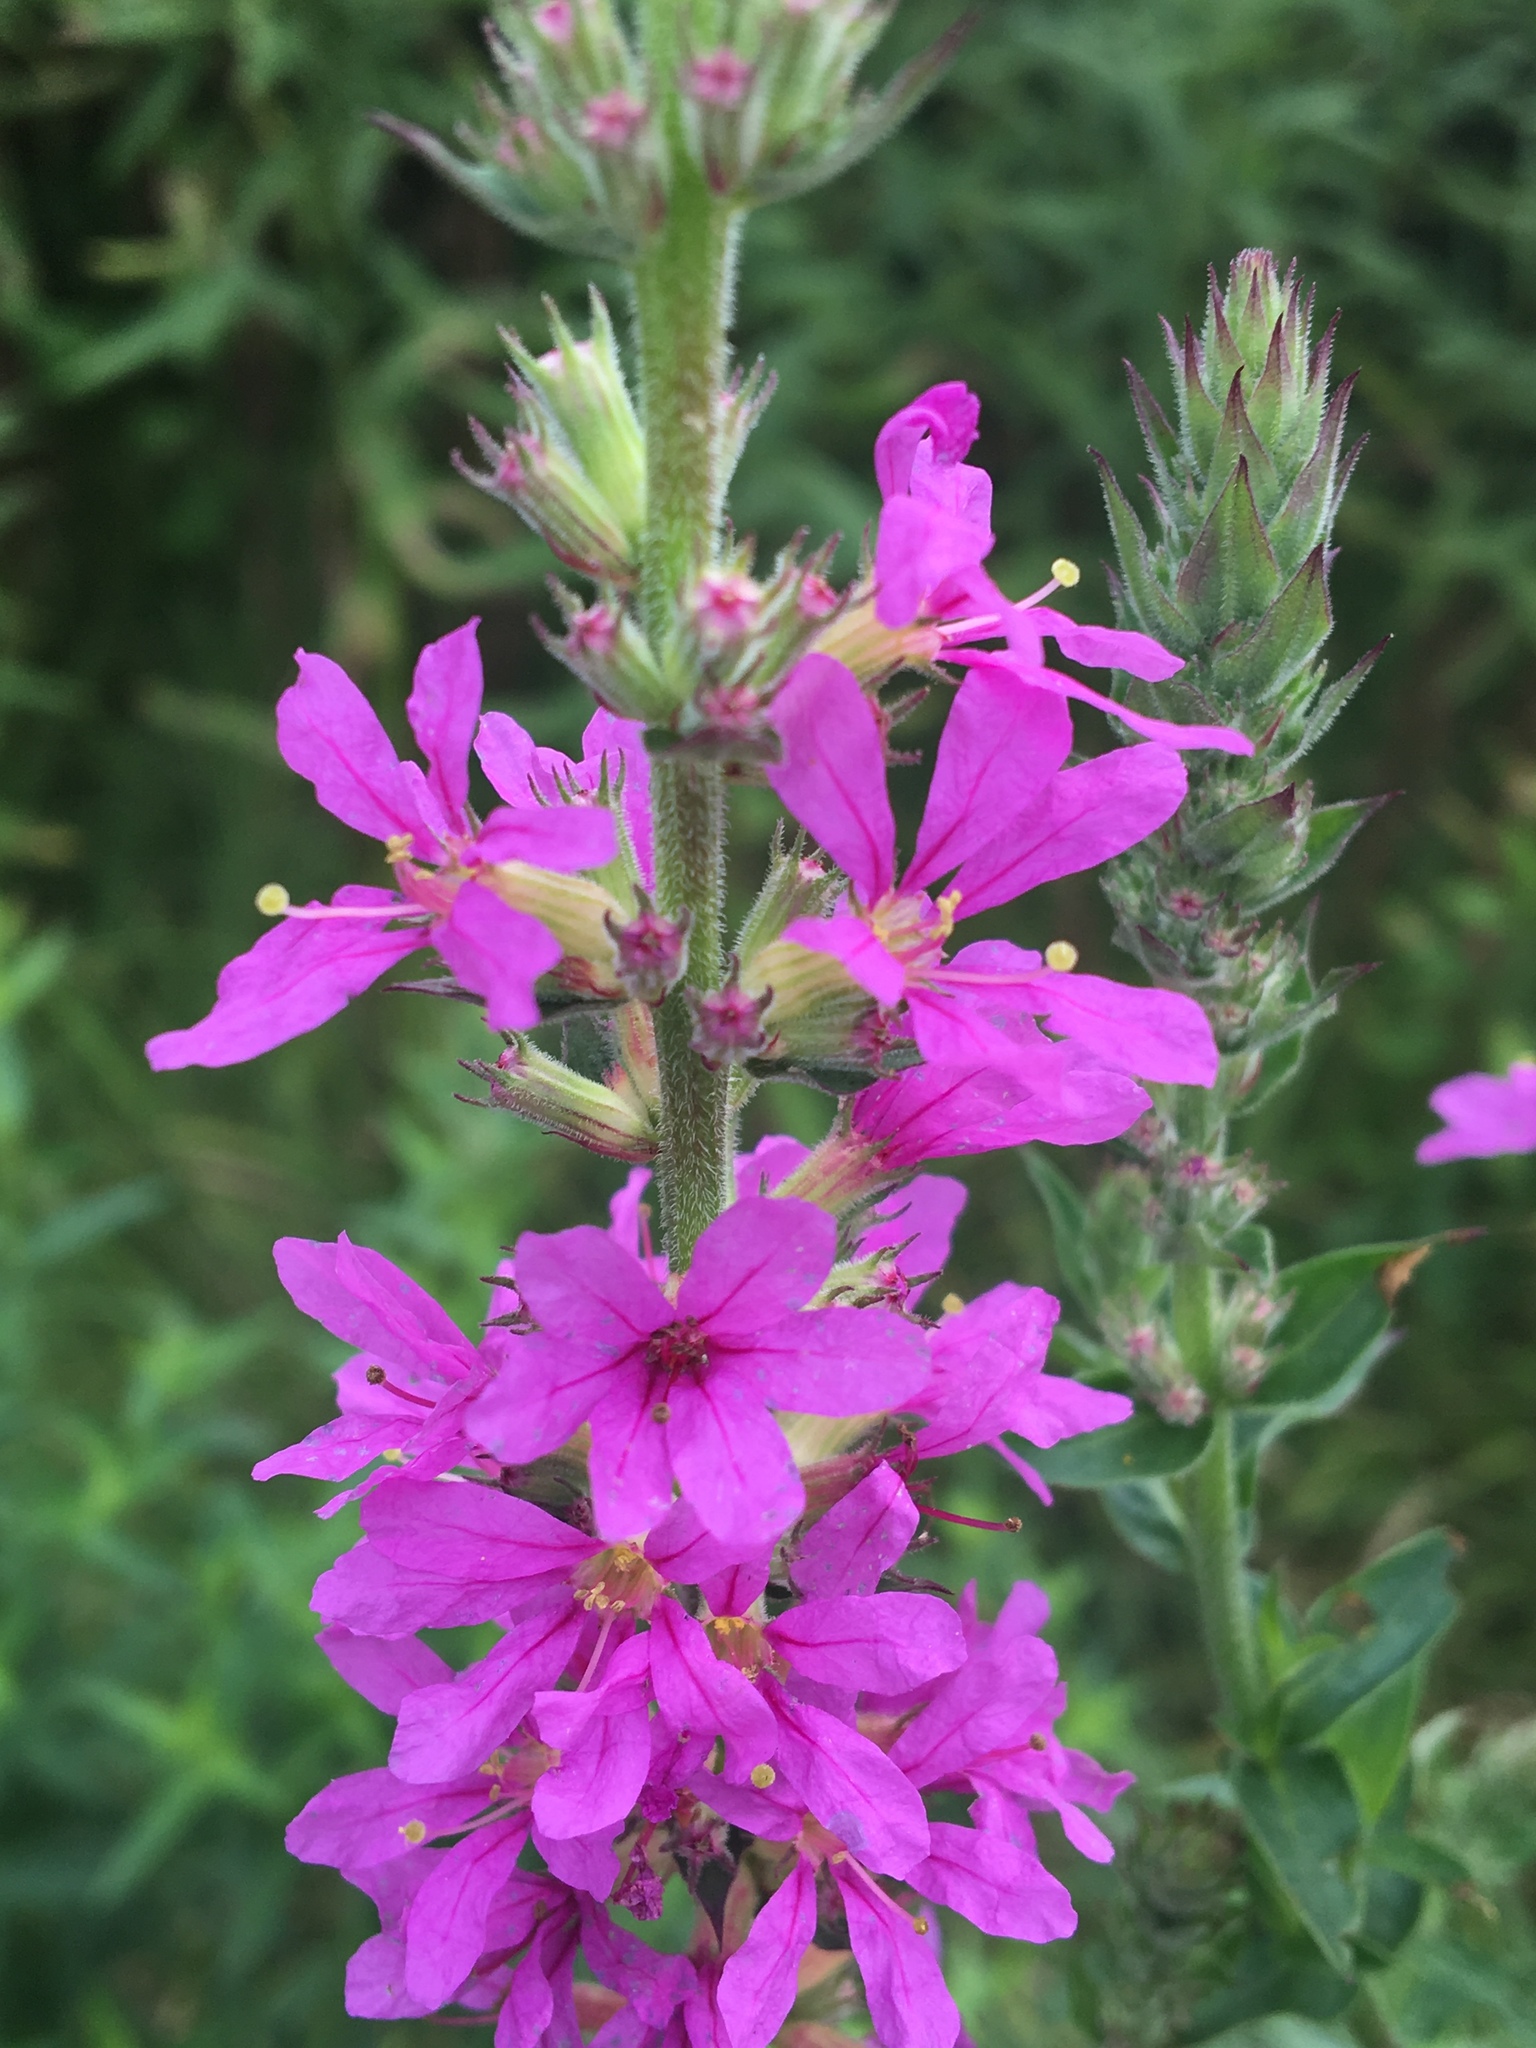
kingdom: Plantae
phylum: Tracheophyta
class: Magnoliopsida
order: Myrtales
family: Lythraceae
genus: Lythrum
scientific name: Lythrum salicaria
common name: Purple loosestrife
